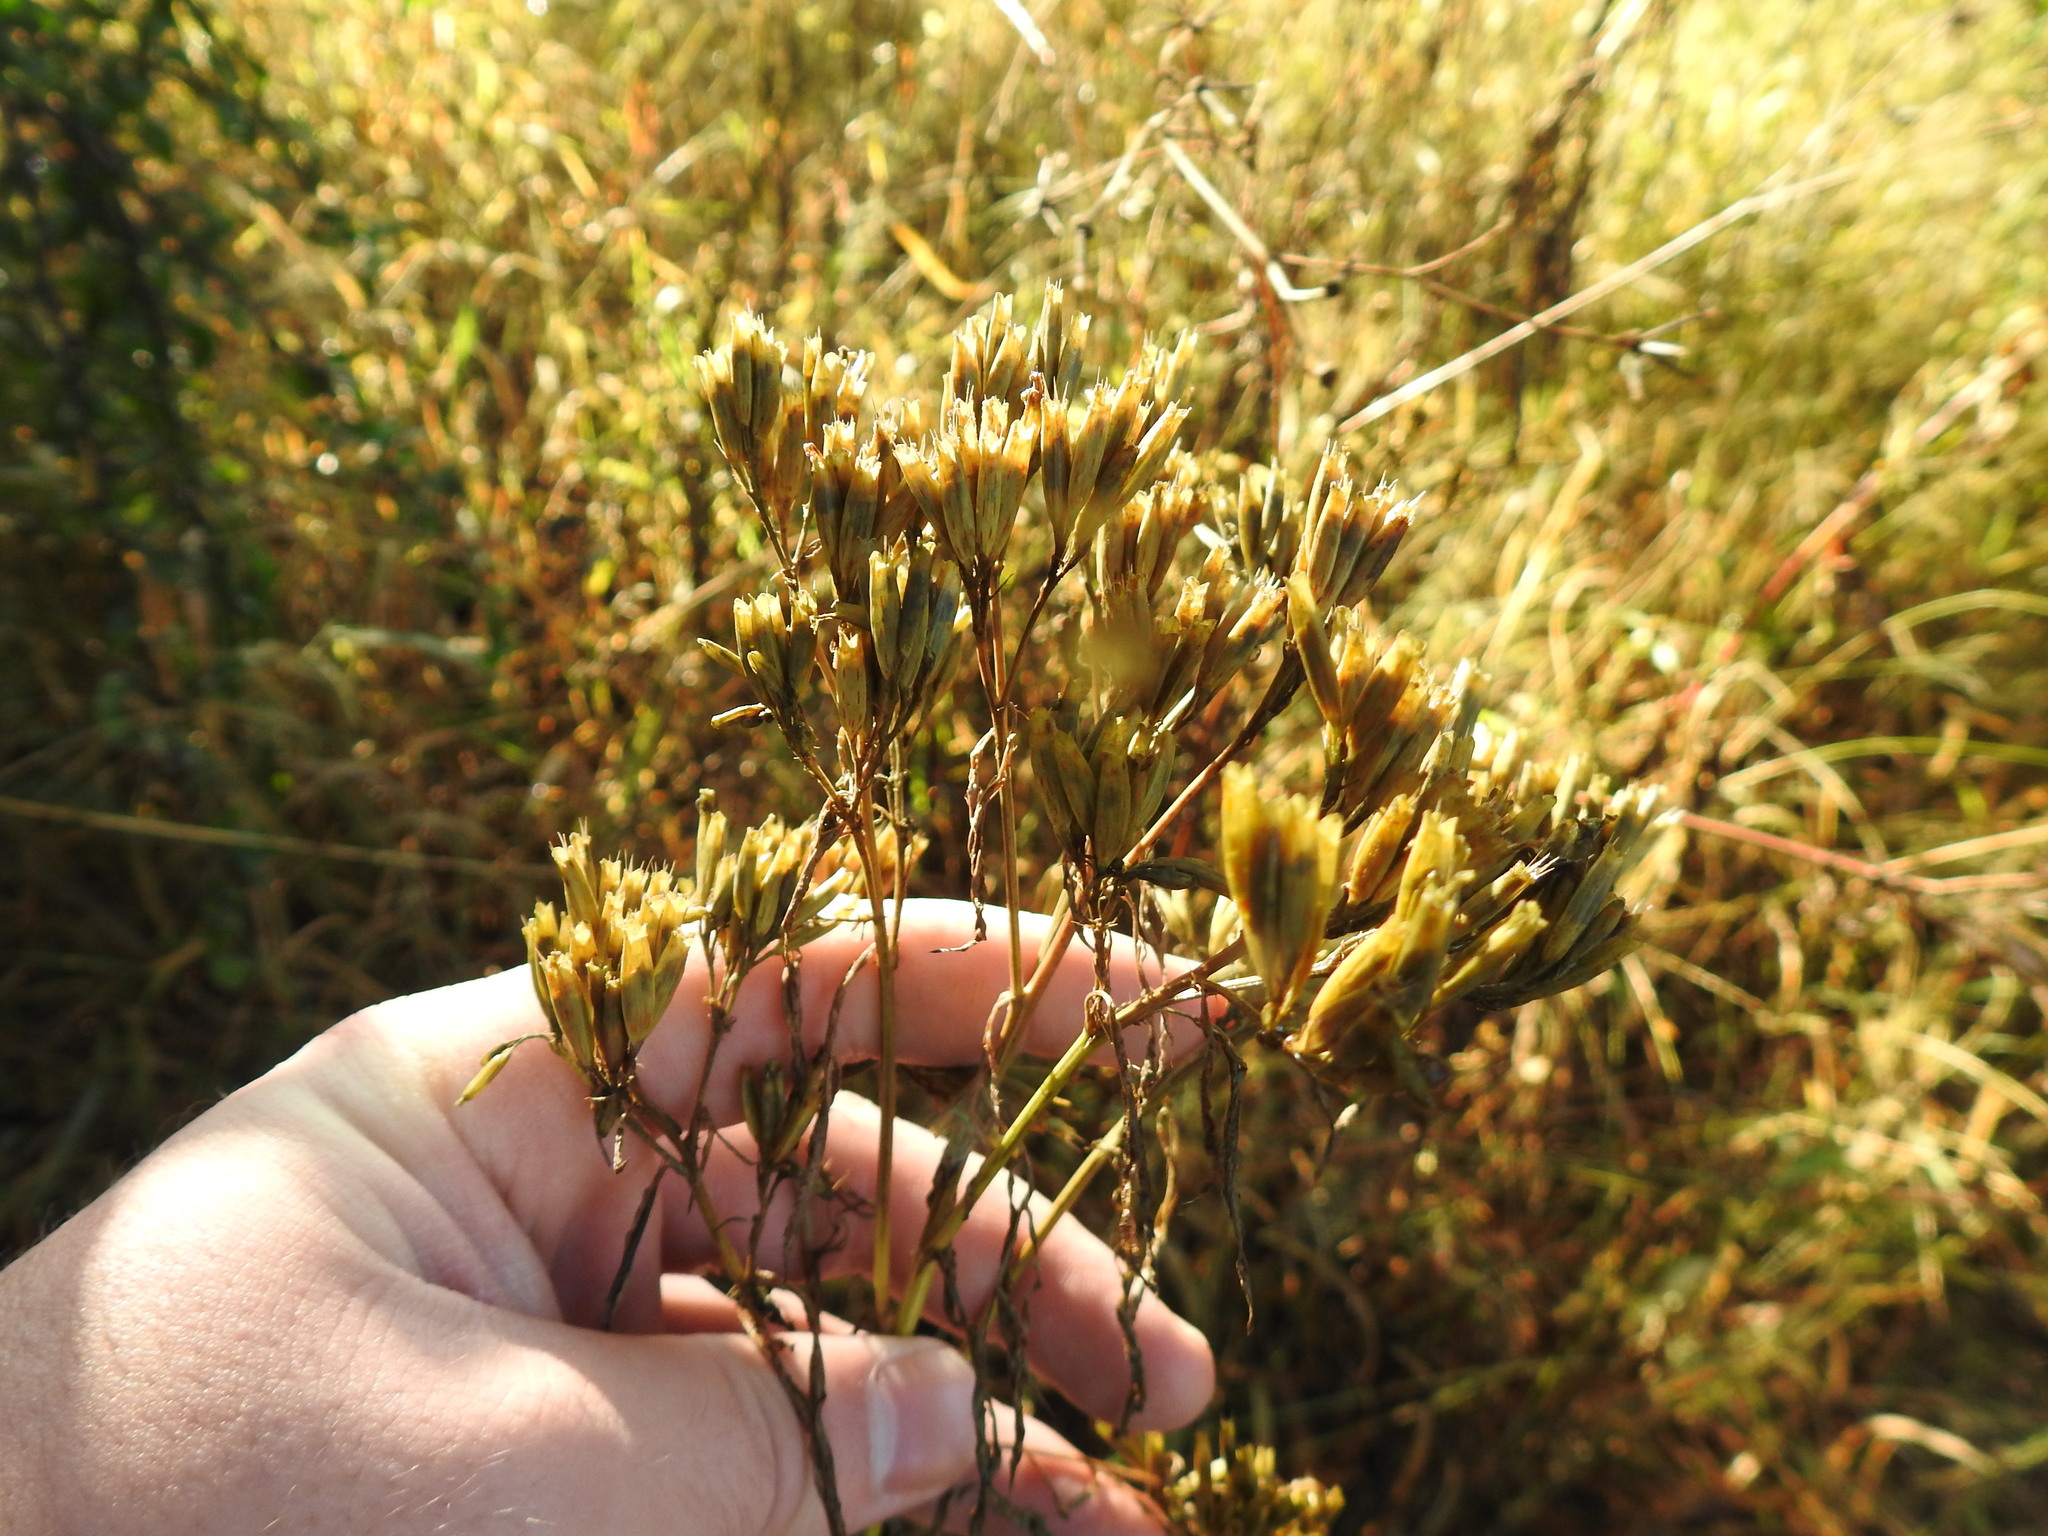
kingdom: Plantae
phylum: Tracheophyta
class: Magnoliopsida
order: Asterales
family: Asteraceae
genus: Tagetes
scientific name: Tagetes minuta
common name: Muster john henry
